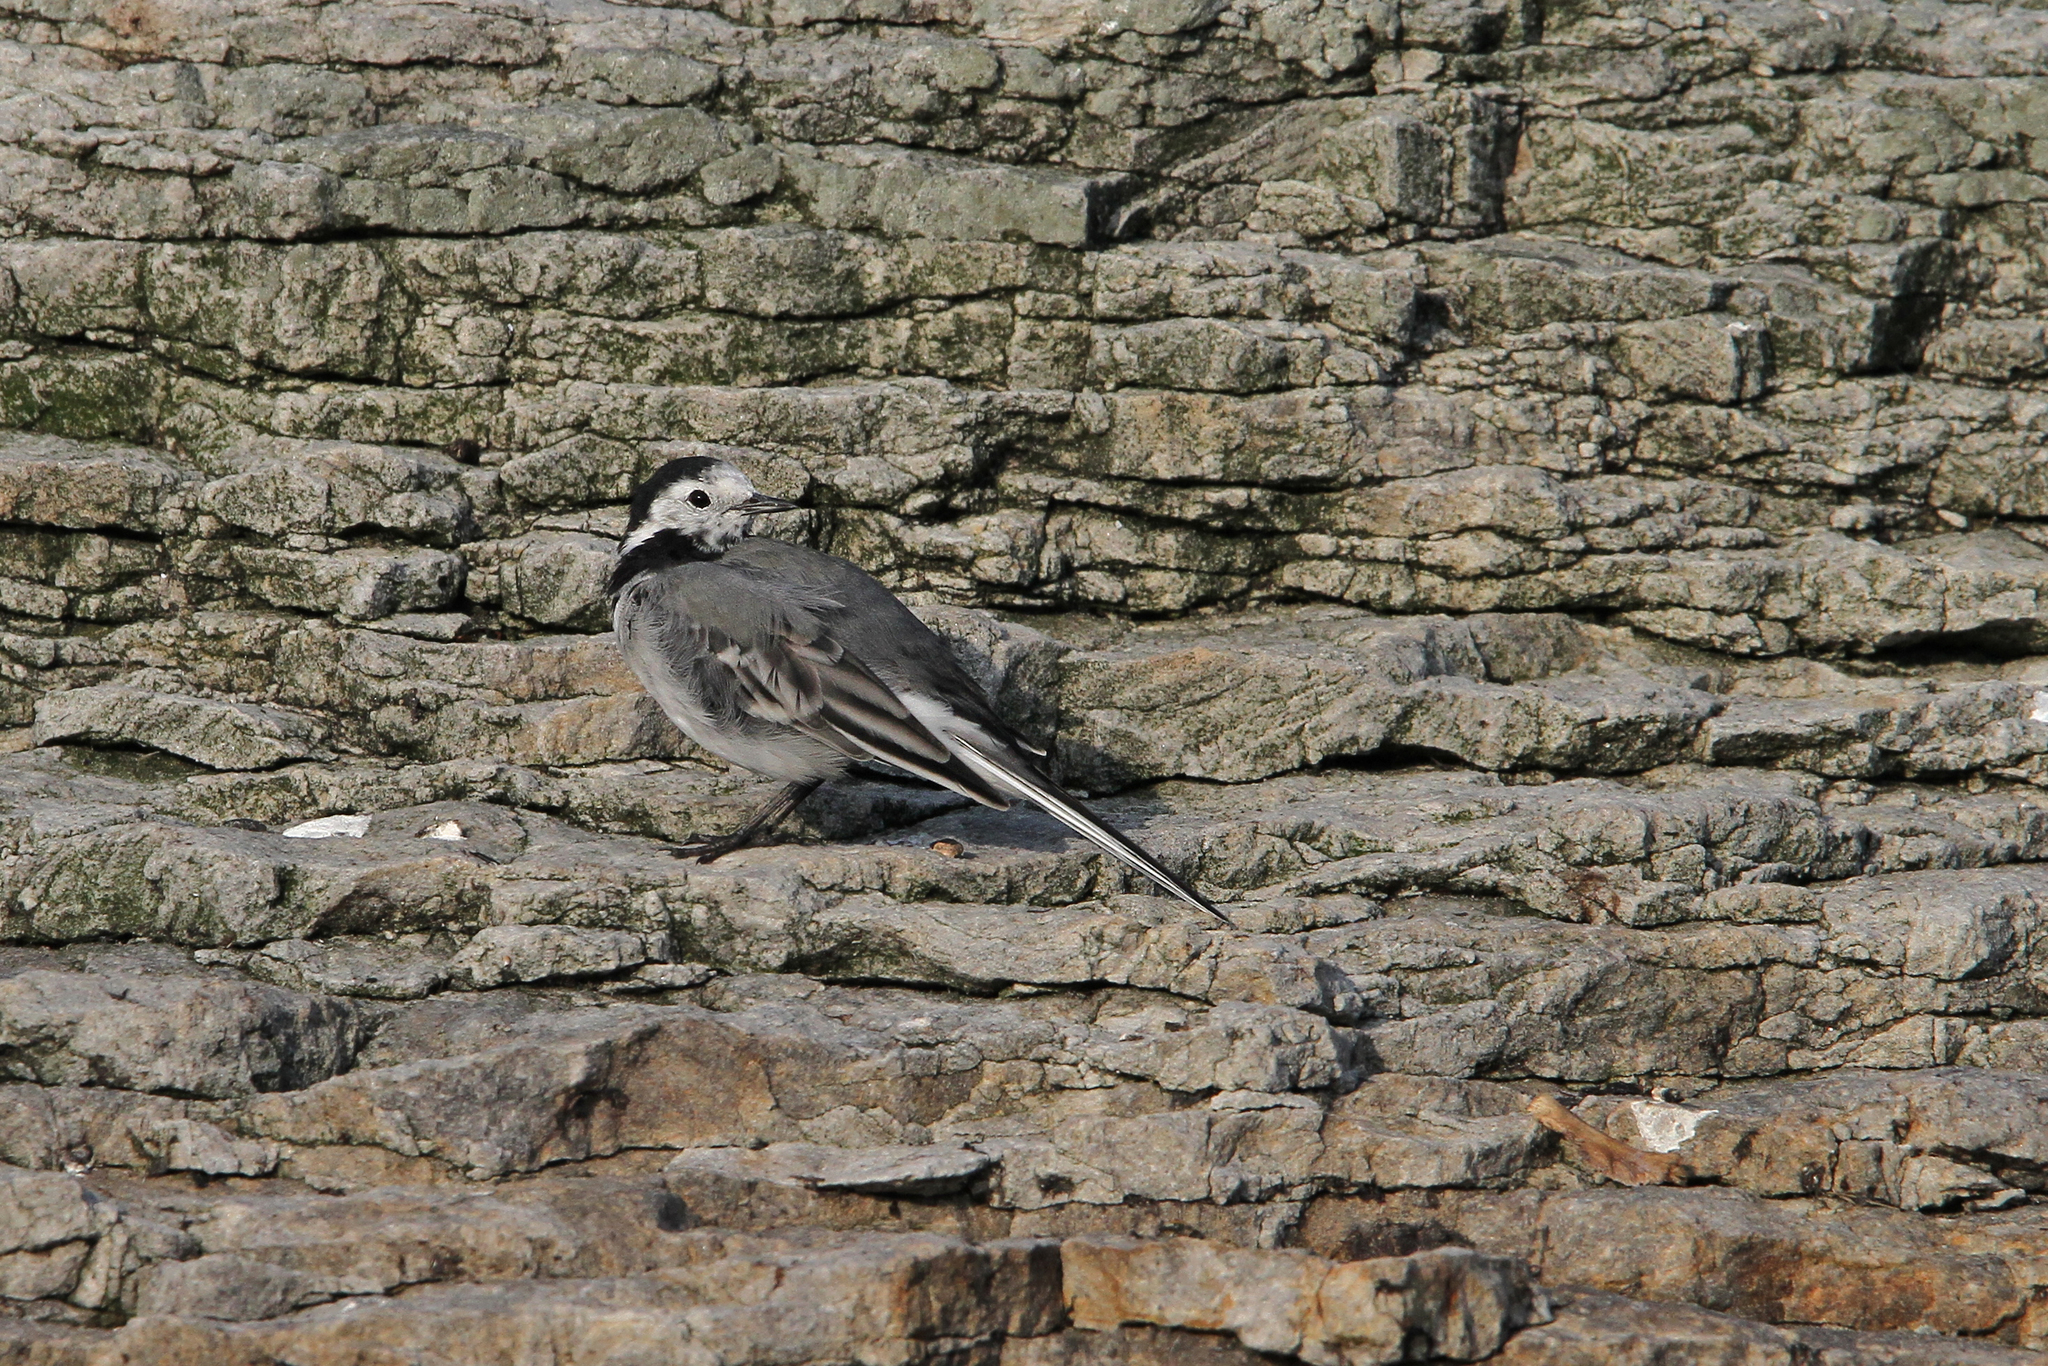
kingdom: Animalia
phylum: Chordata
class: Aves
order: Passeriformes
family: Motacillidae
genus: Motacilla
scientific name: Motacilla alba
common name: White wagtail
